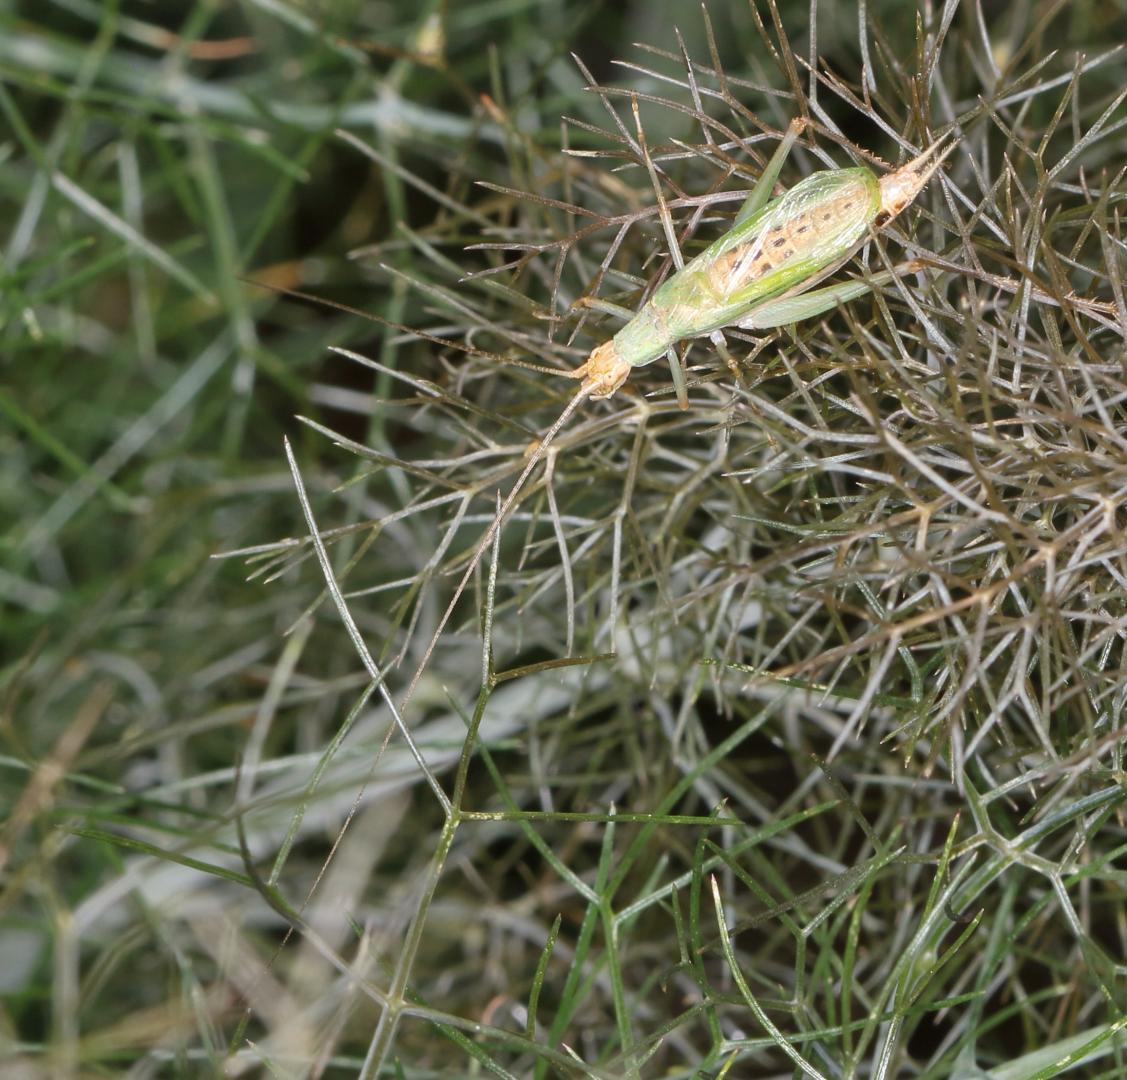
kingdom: Animalia
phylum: Arthropoda
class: Insecta
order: Orthoptera
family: Gryllidae
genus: Oecanthus
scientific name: Oecanthus capensis
